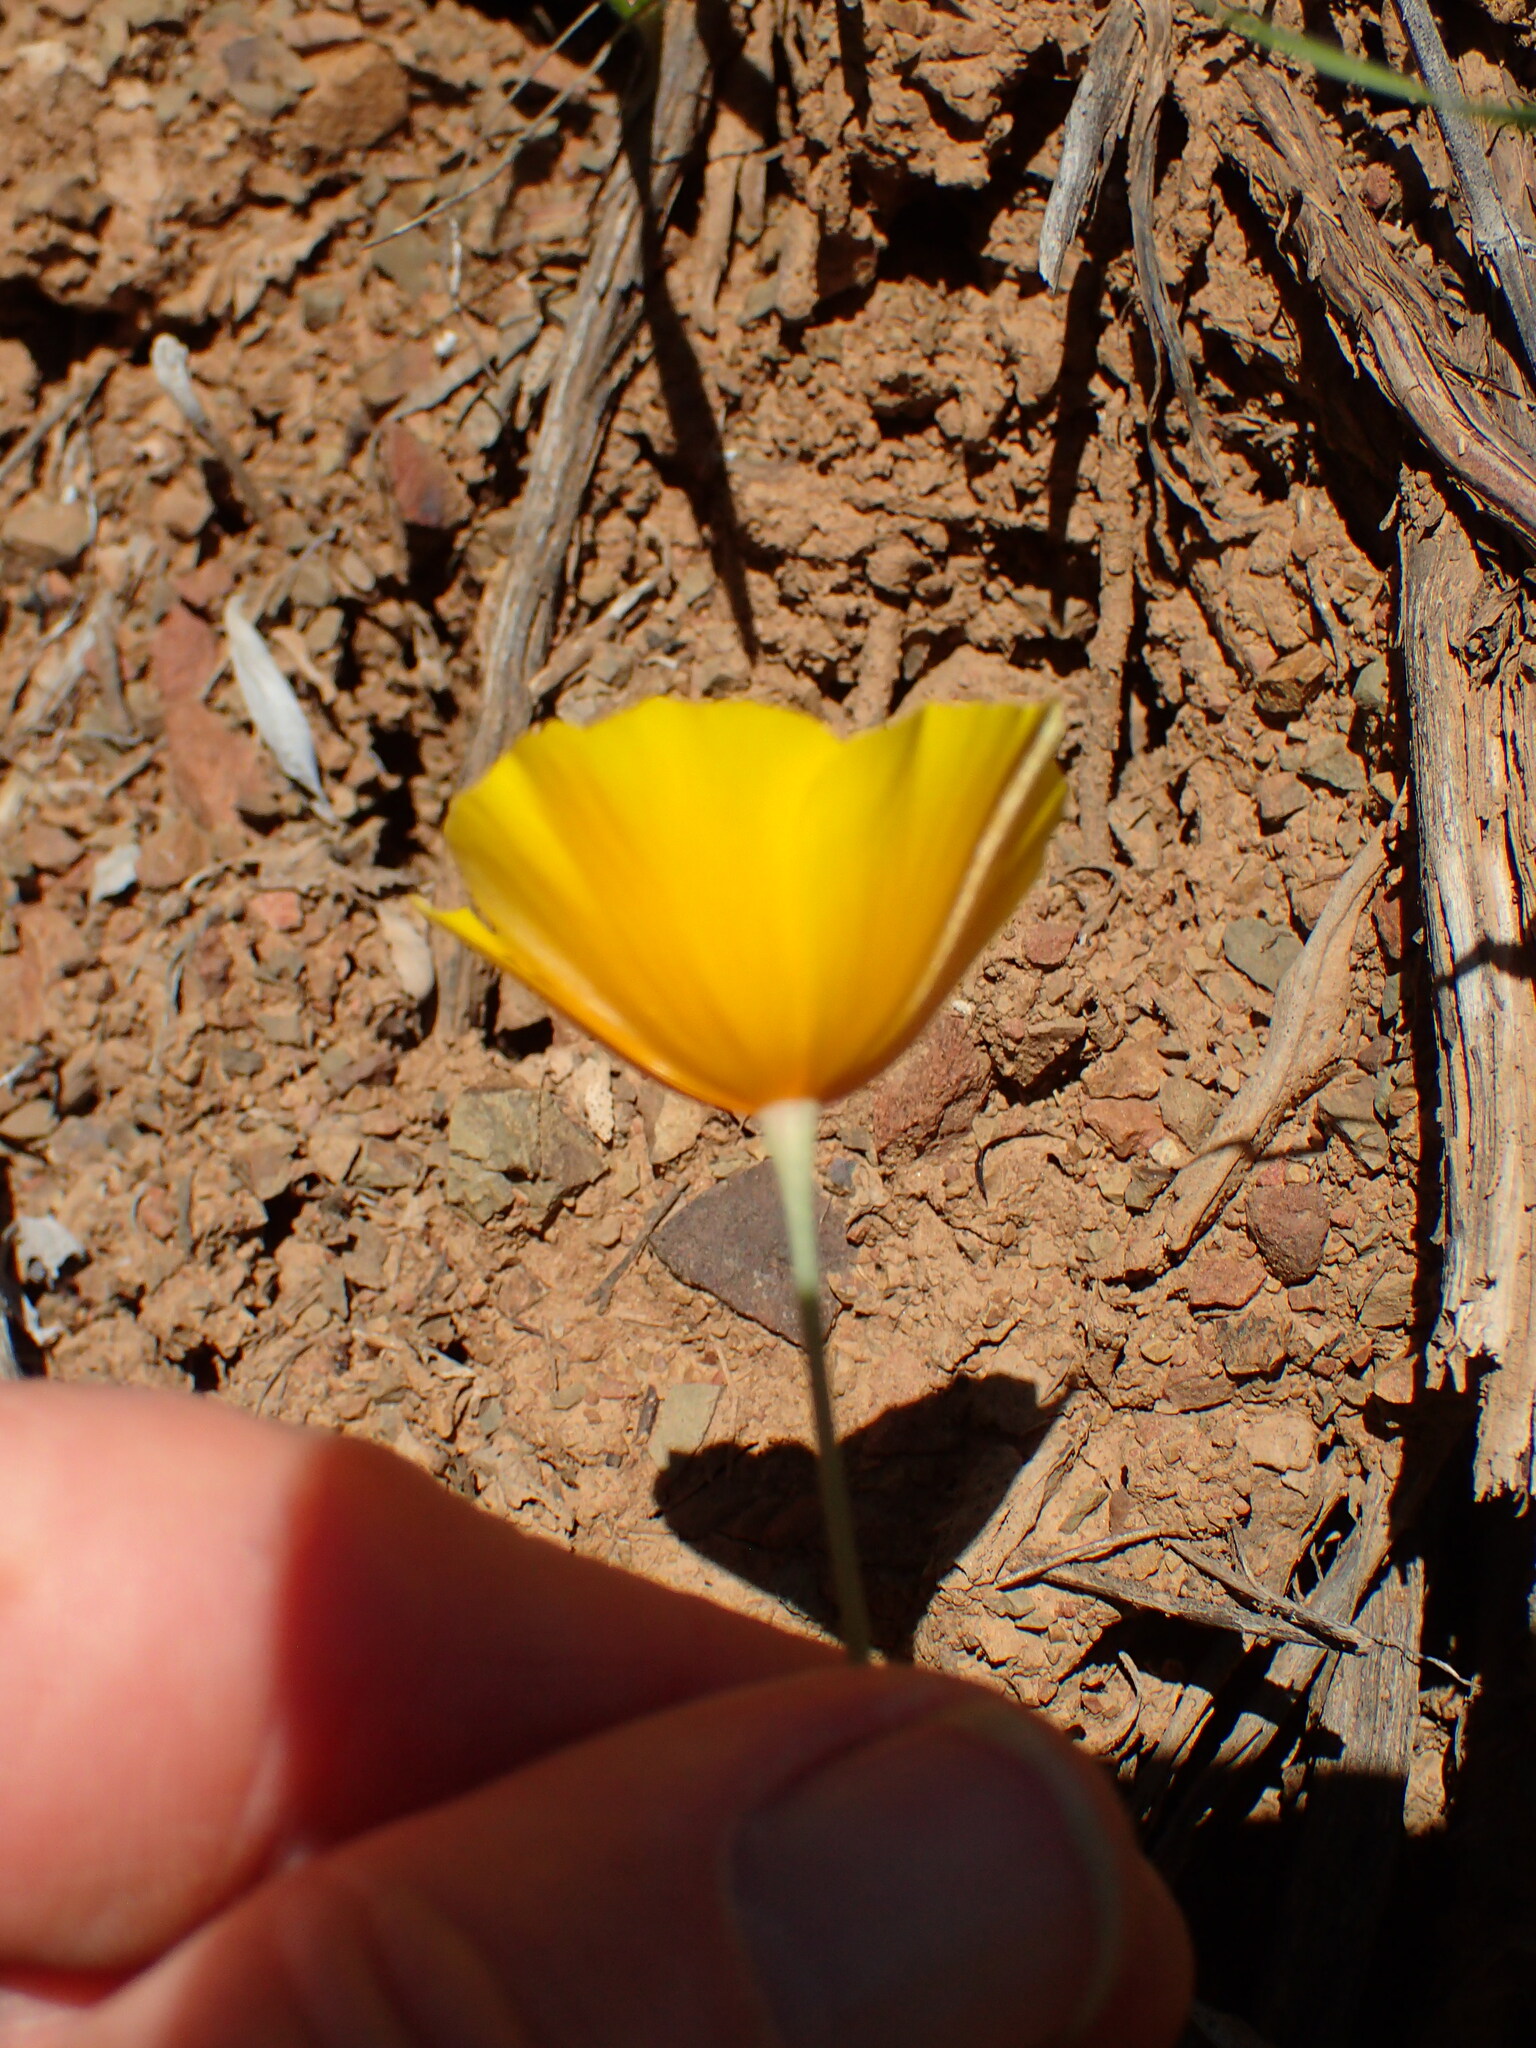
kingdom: Plantae
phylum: Tracheophyta
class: Magnoliopsida
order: Ranunculales
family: Papaveraceae
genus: Eschscholzia
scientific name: Eschscholzia caespitosa
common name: Tufted california-poppy
